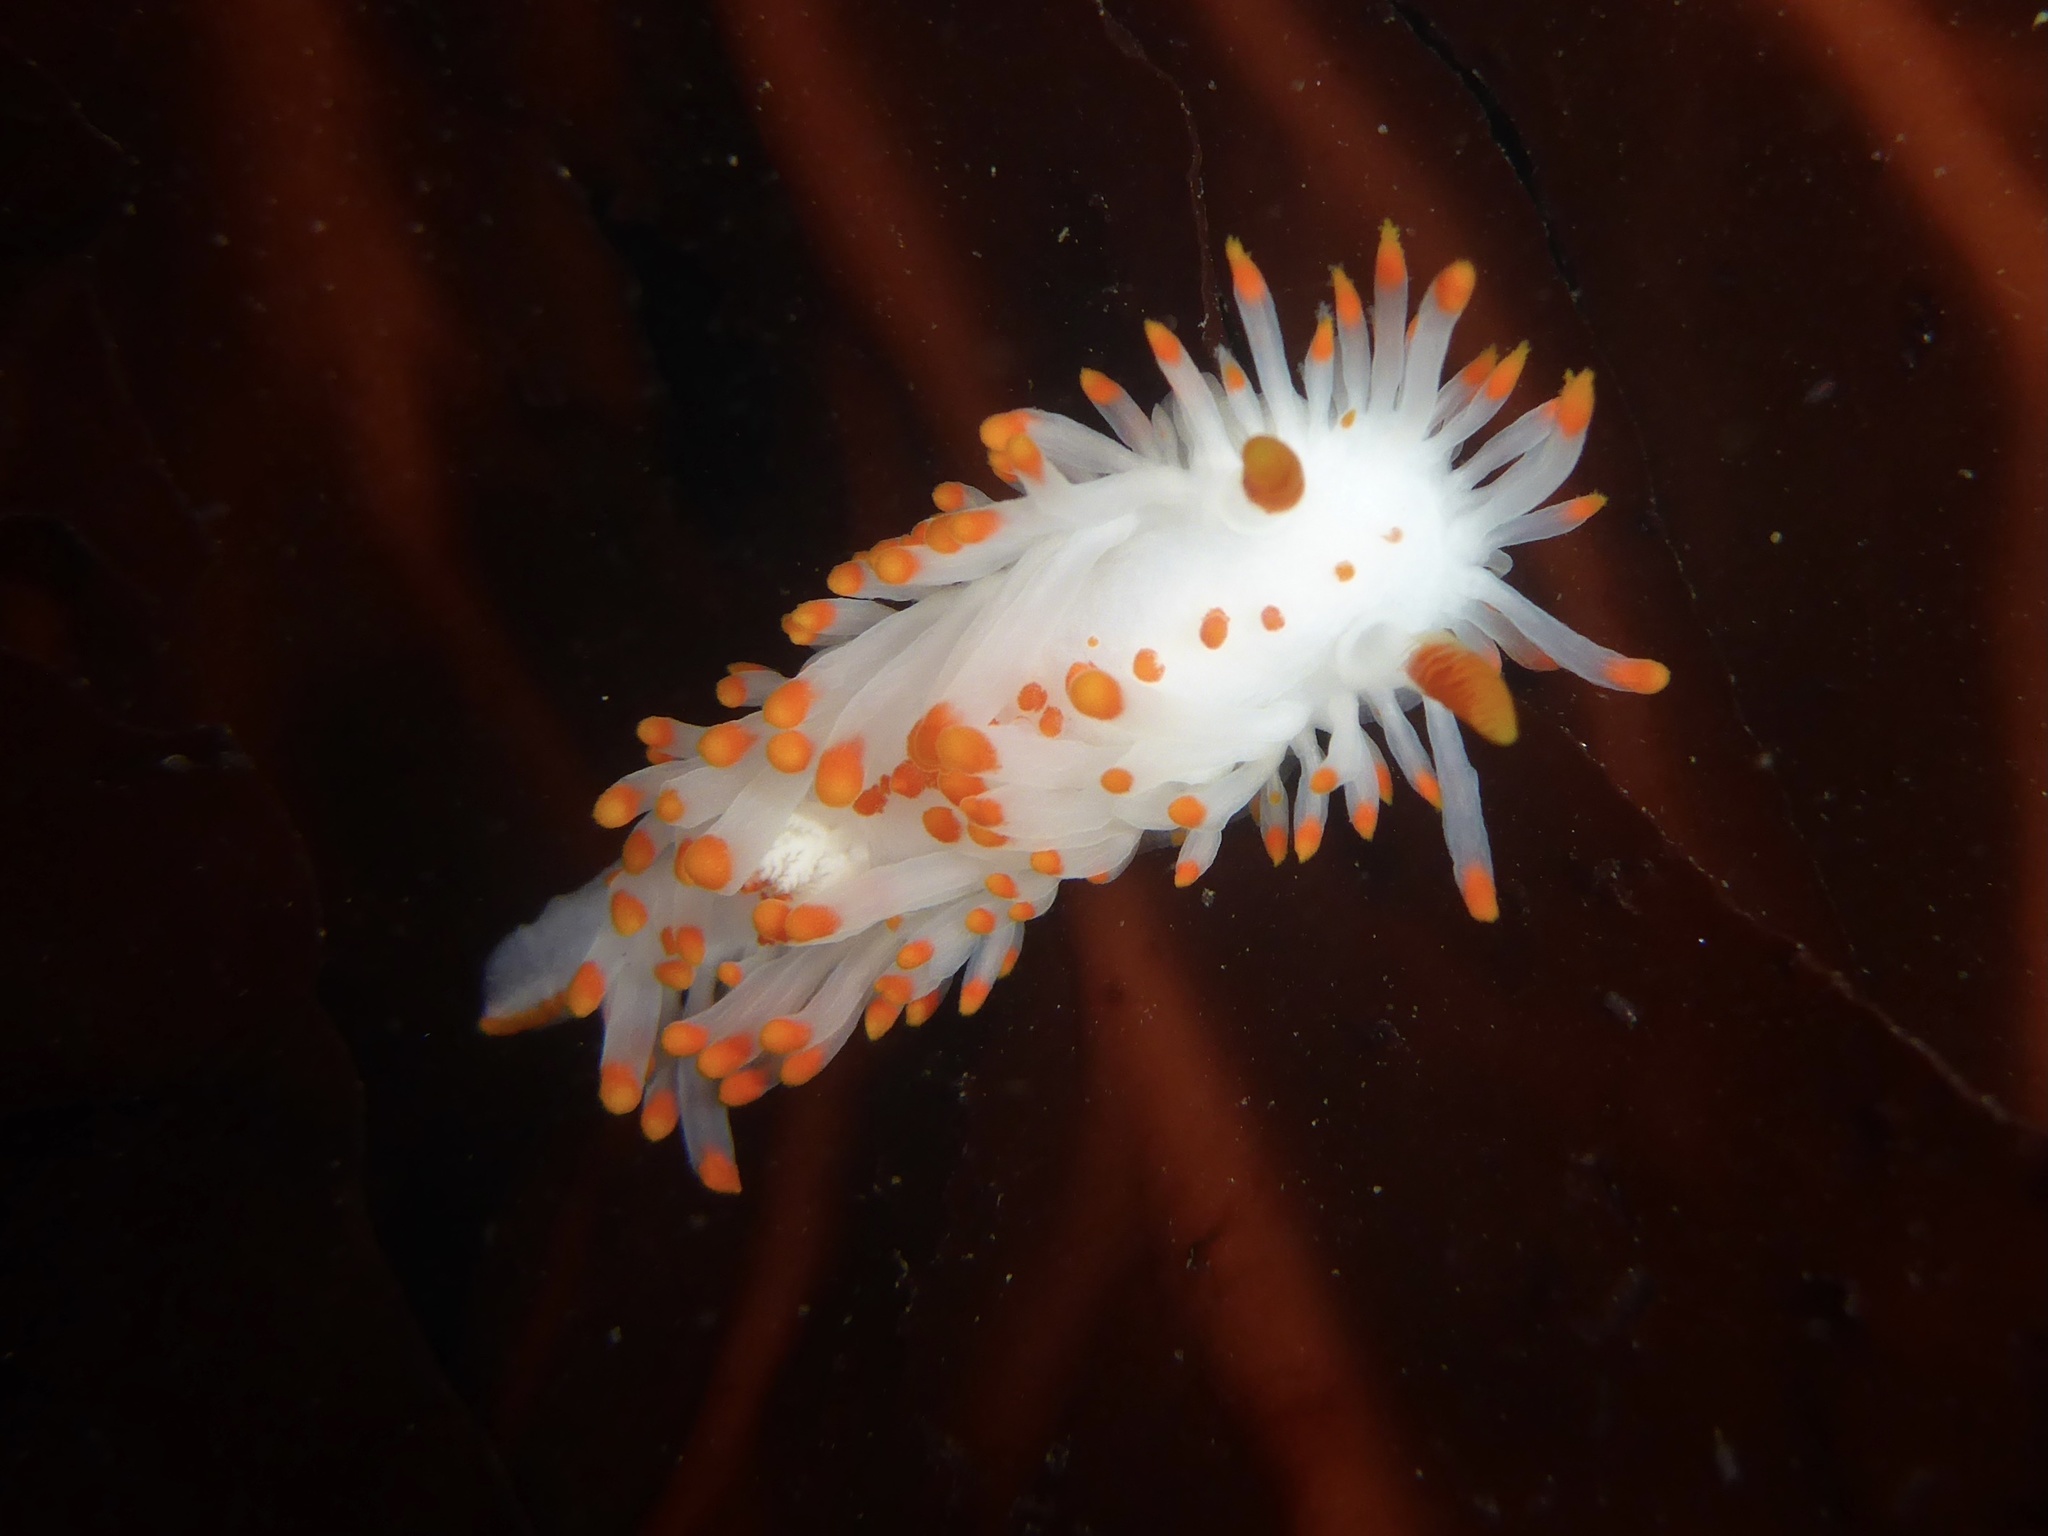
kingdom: Animalia
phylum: Mollusca
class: Gastropoda
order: Nudibranchia
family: Polyceridae
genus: Limacia
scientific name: Limacia mcdonaldi
